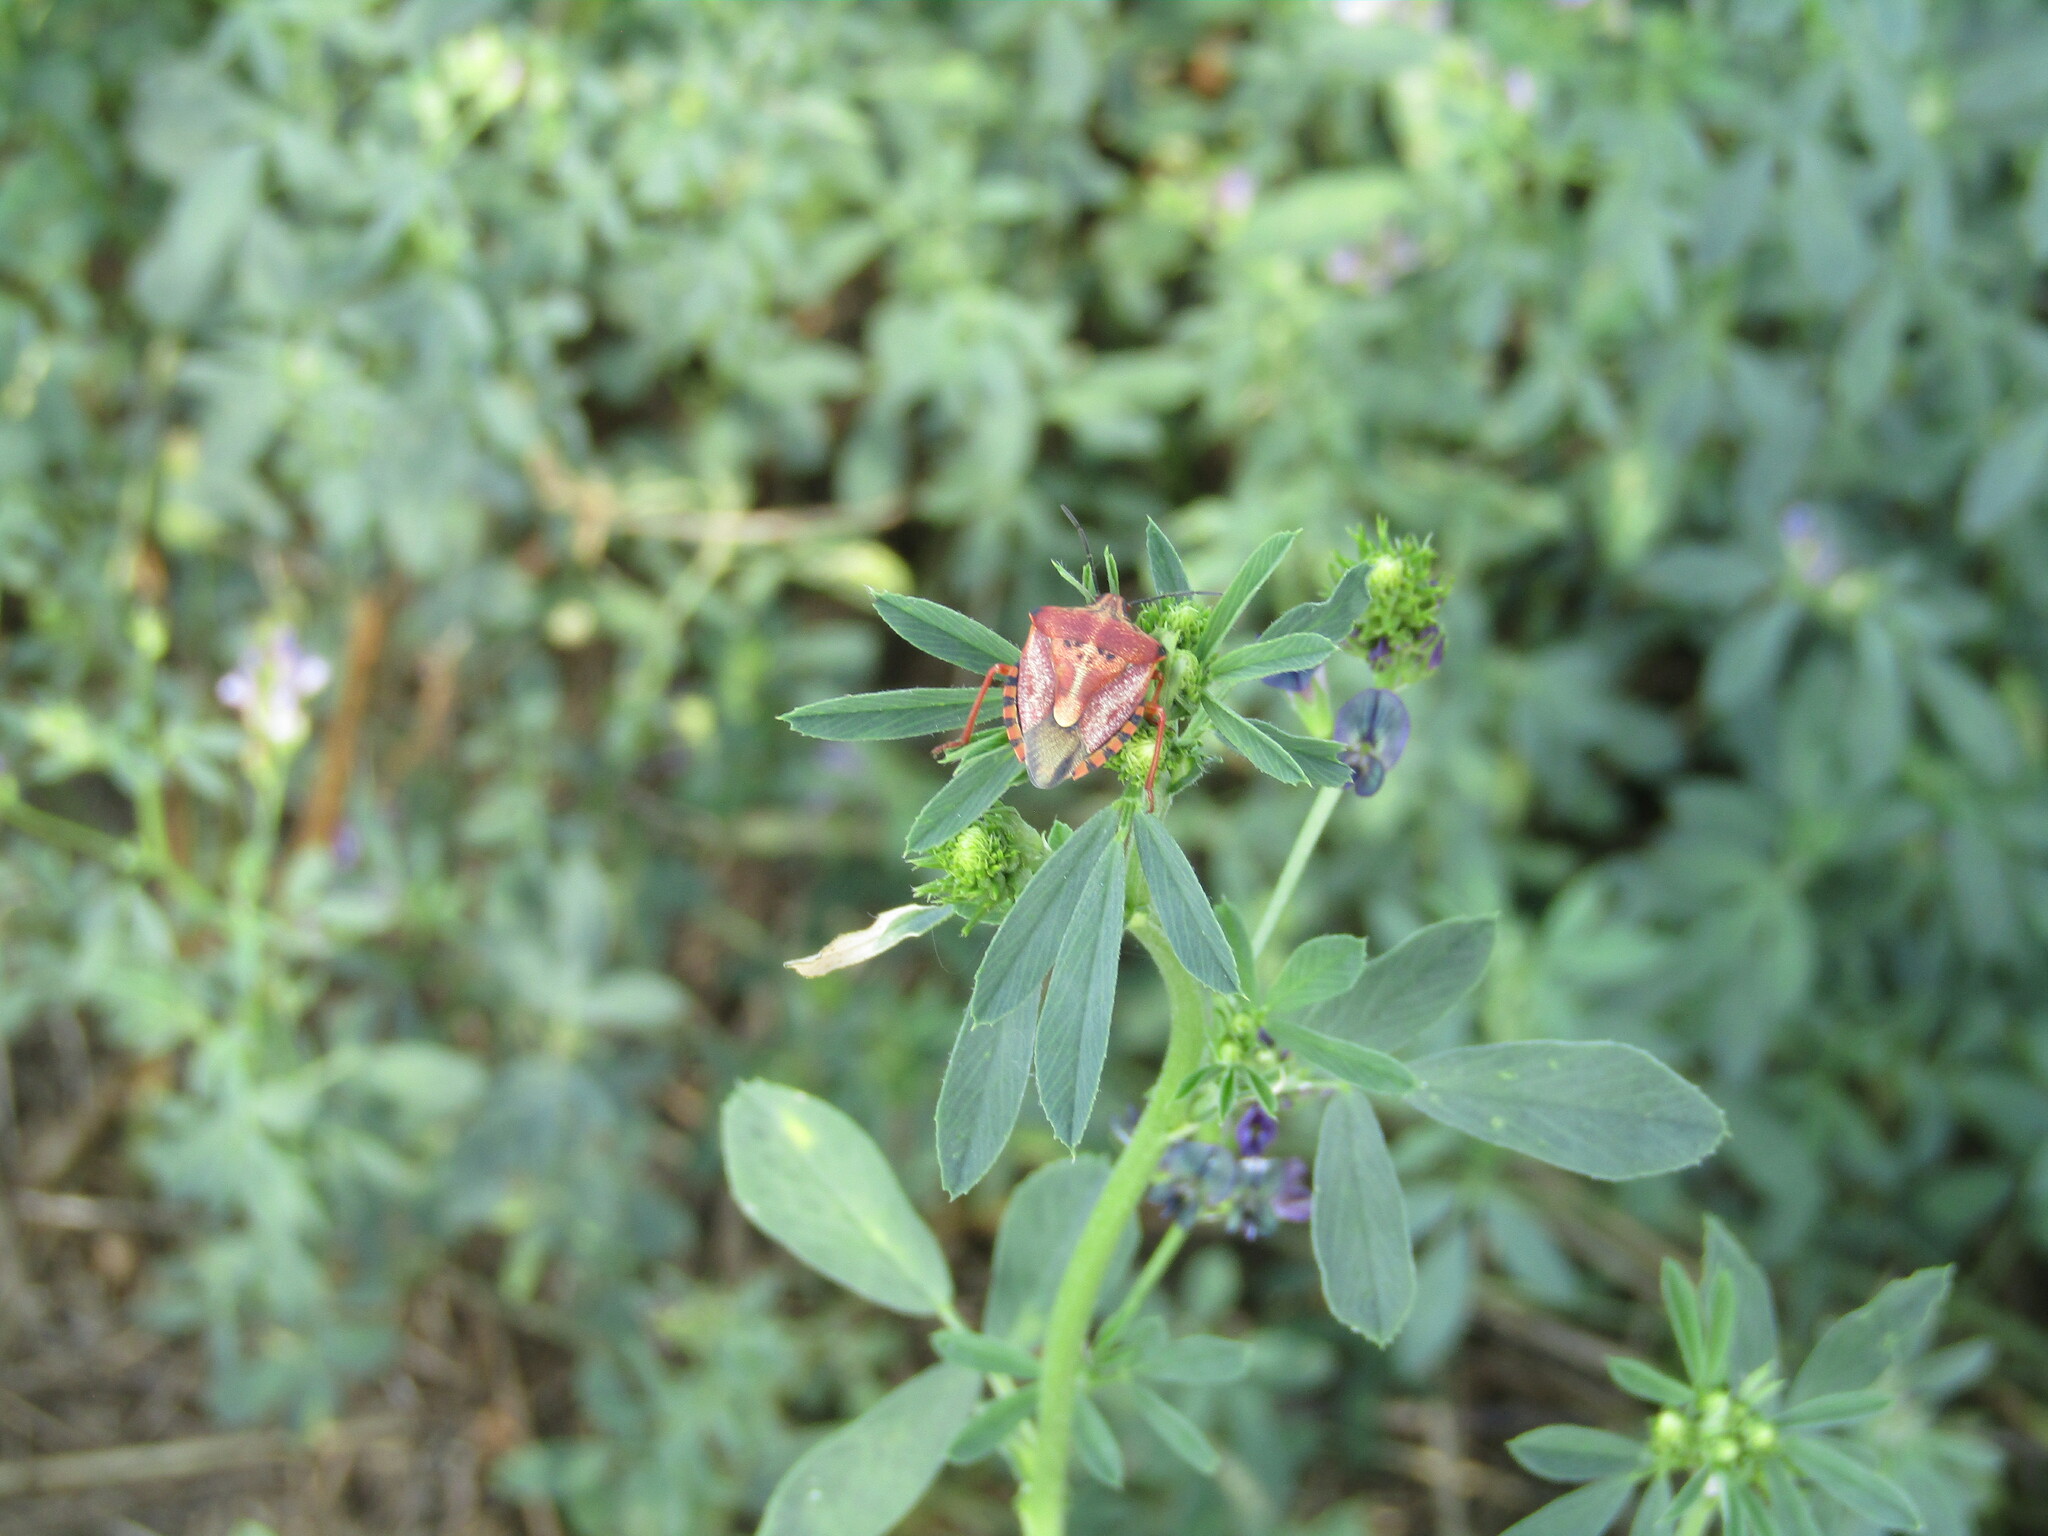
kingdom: Animalia
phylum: Arthropoda
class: Insecta
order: Hemiptera
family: Pentatomidae
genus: Carpocoris
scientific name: Carpocoris mediterraneus
